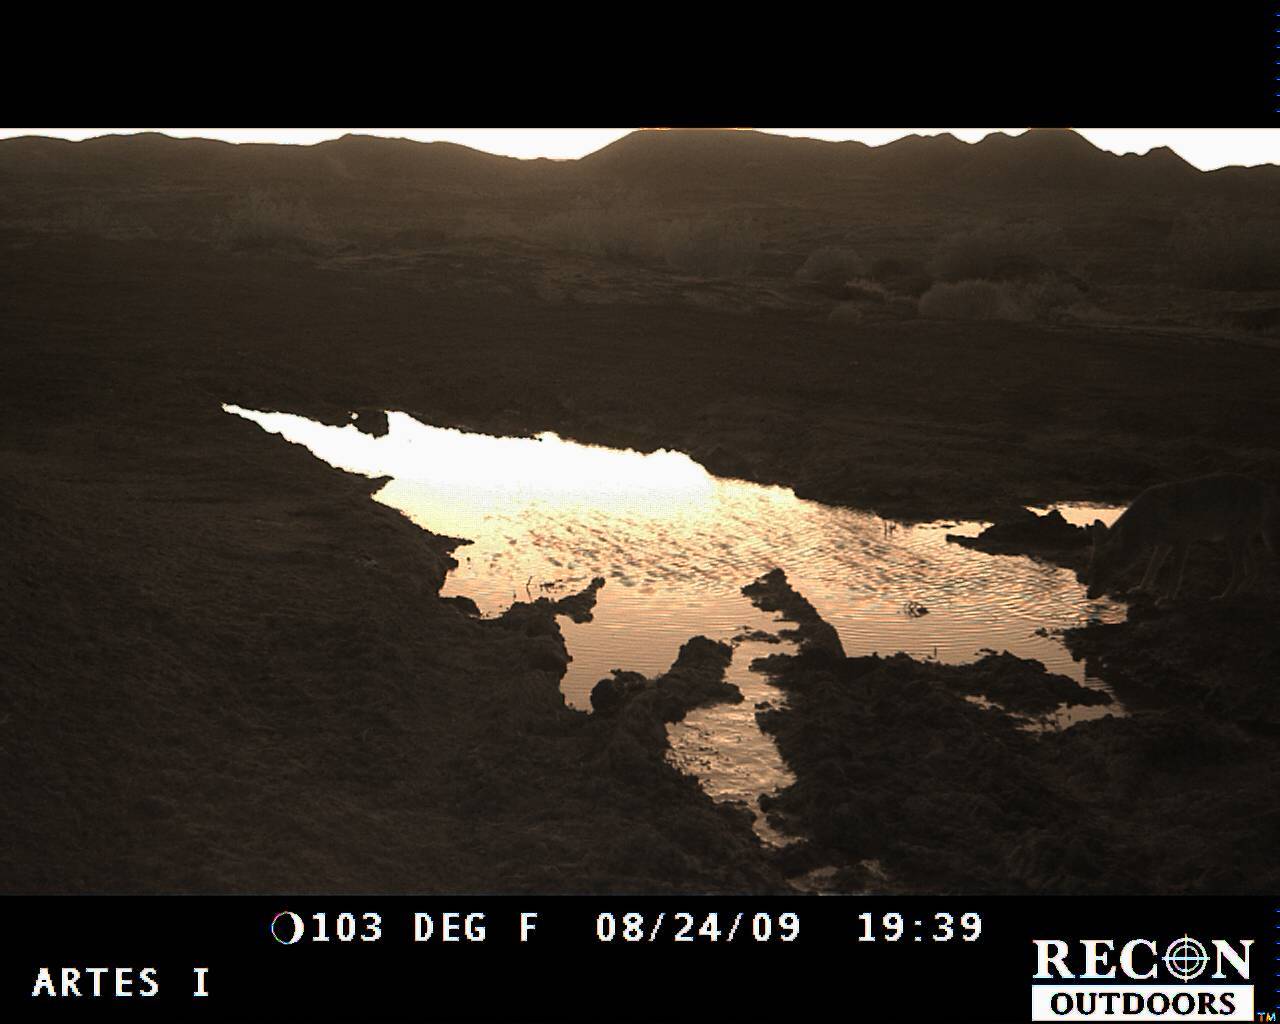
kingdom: Animalia
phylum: Chordata
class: Mammalia
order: Carnivora
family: Canidae
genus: Canis
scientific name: Canis latrans
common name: Coyote
